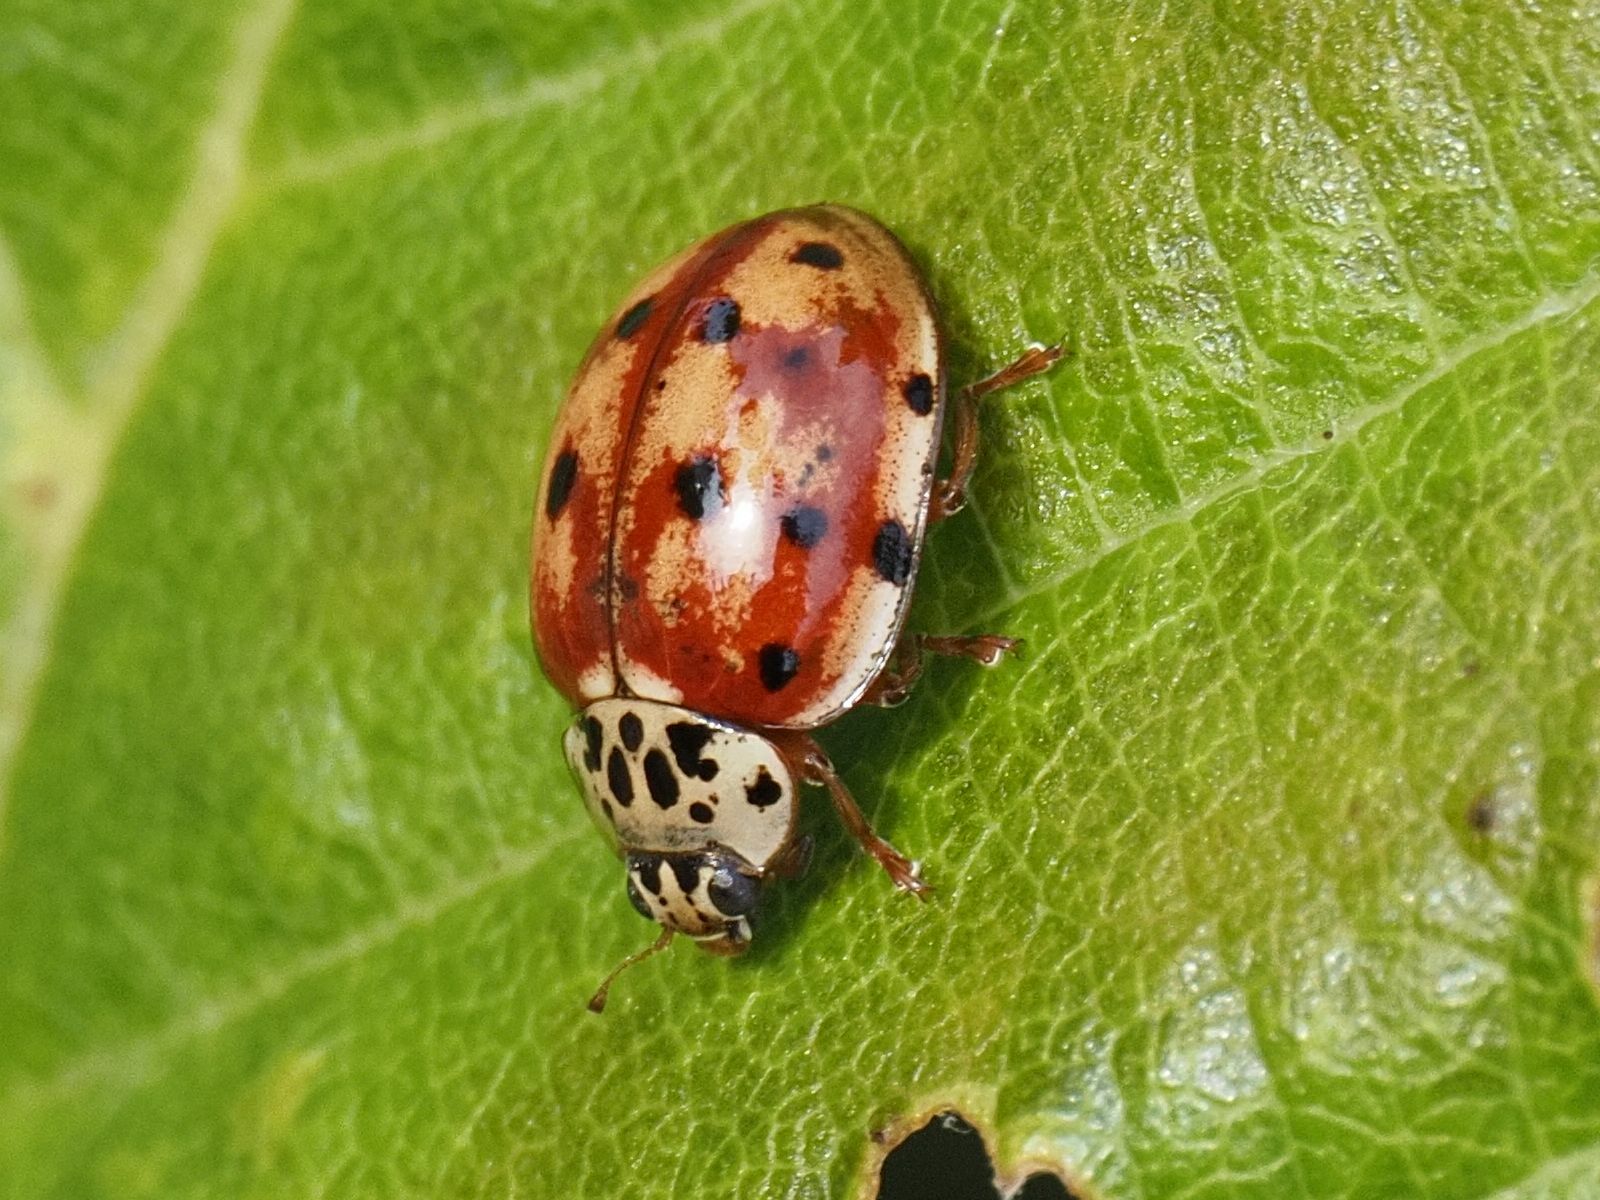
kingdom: Animalia
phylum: Arthropoda
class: Insecta
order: Coleoptera
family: Coccinellidae
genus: Harmonia
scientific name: Harmonia quadripunctata
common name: Cream-streaked ladybird
